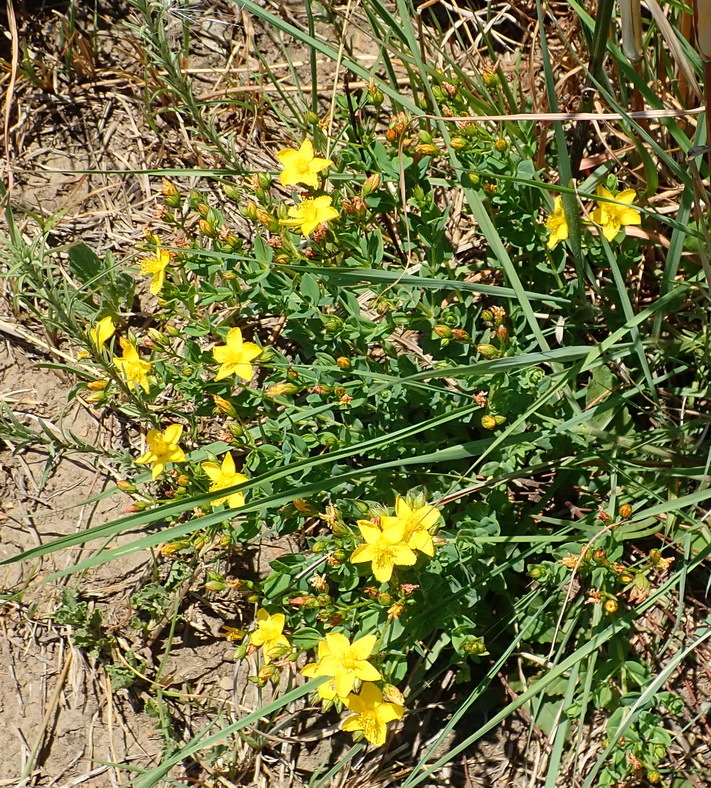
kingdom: Plantae
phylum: Tracheophyta
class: Magnoliopsida
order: Malpighiales
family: Hypericaceae
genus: Hypericum
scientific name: Hypericum aethiopicum
